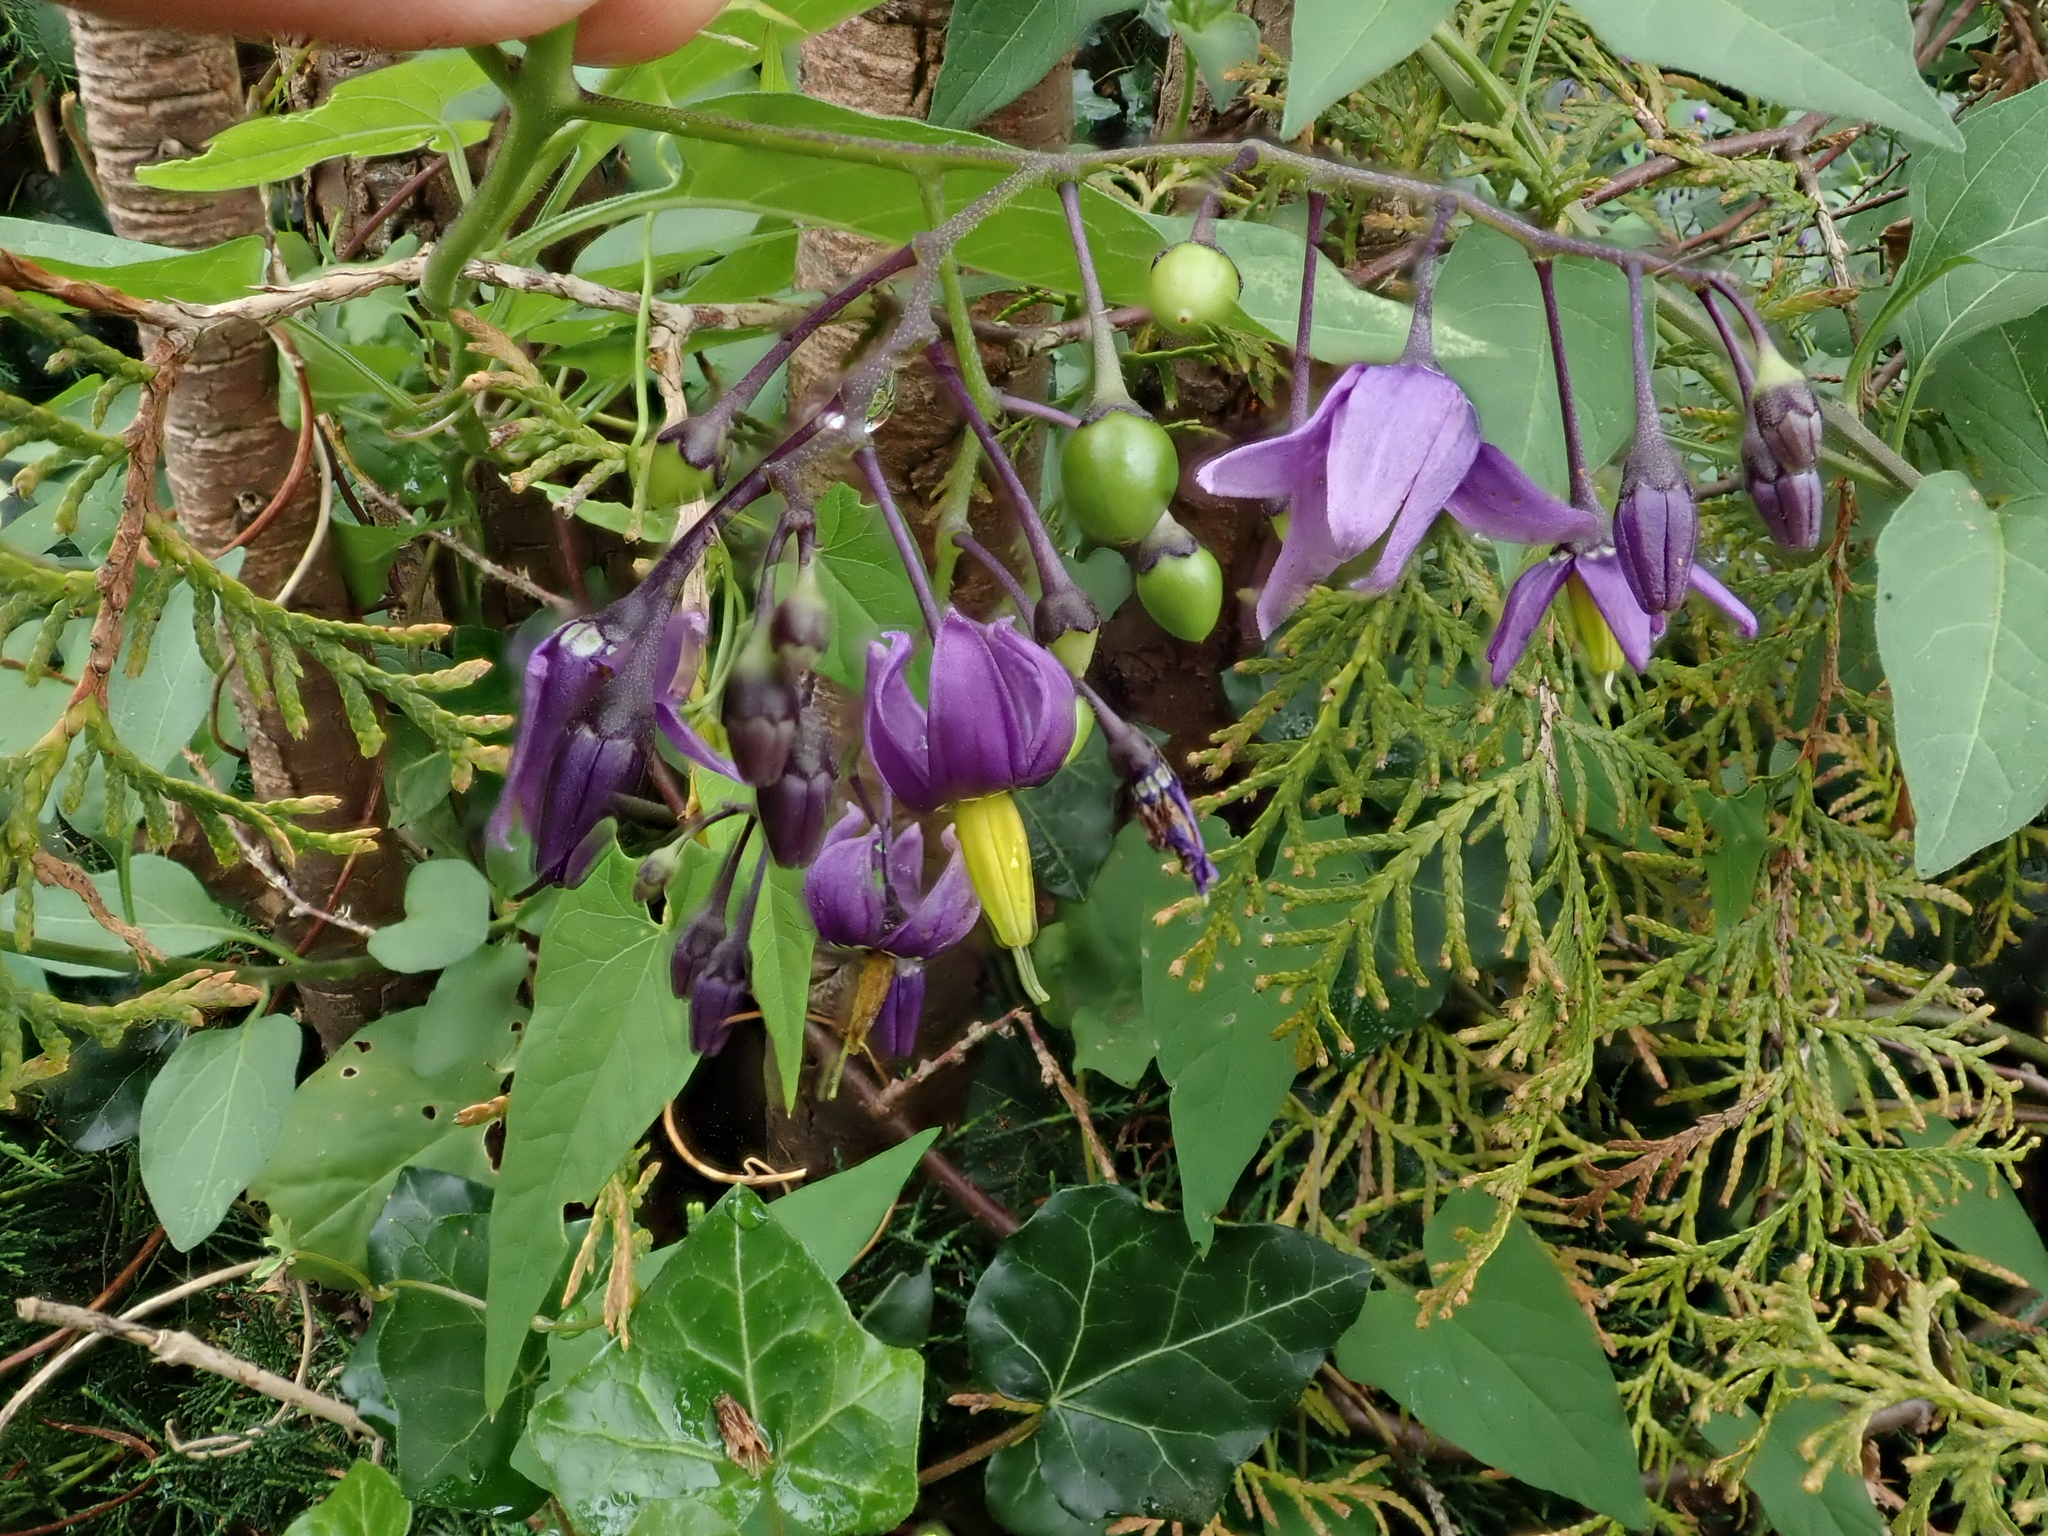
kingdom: Plantae
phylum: Tracheophyta
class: Magnoliopsida
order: Solanales
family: Solanaceae
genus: Solanum
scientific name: Solanum dulcamara
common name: Climbing nightshade
